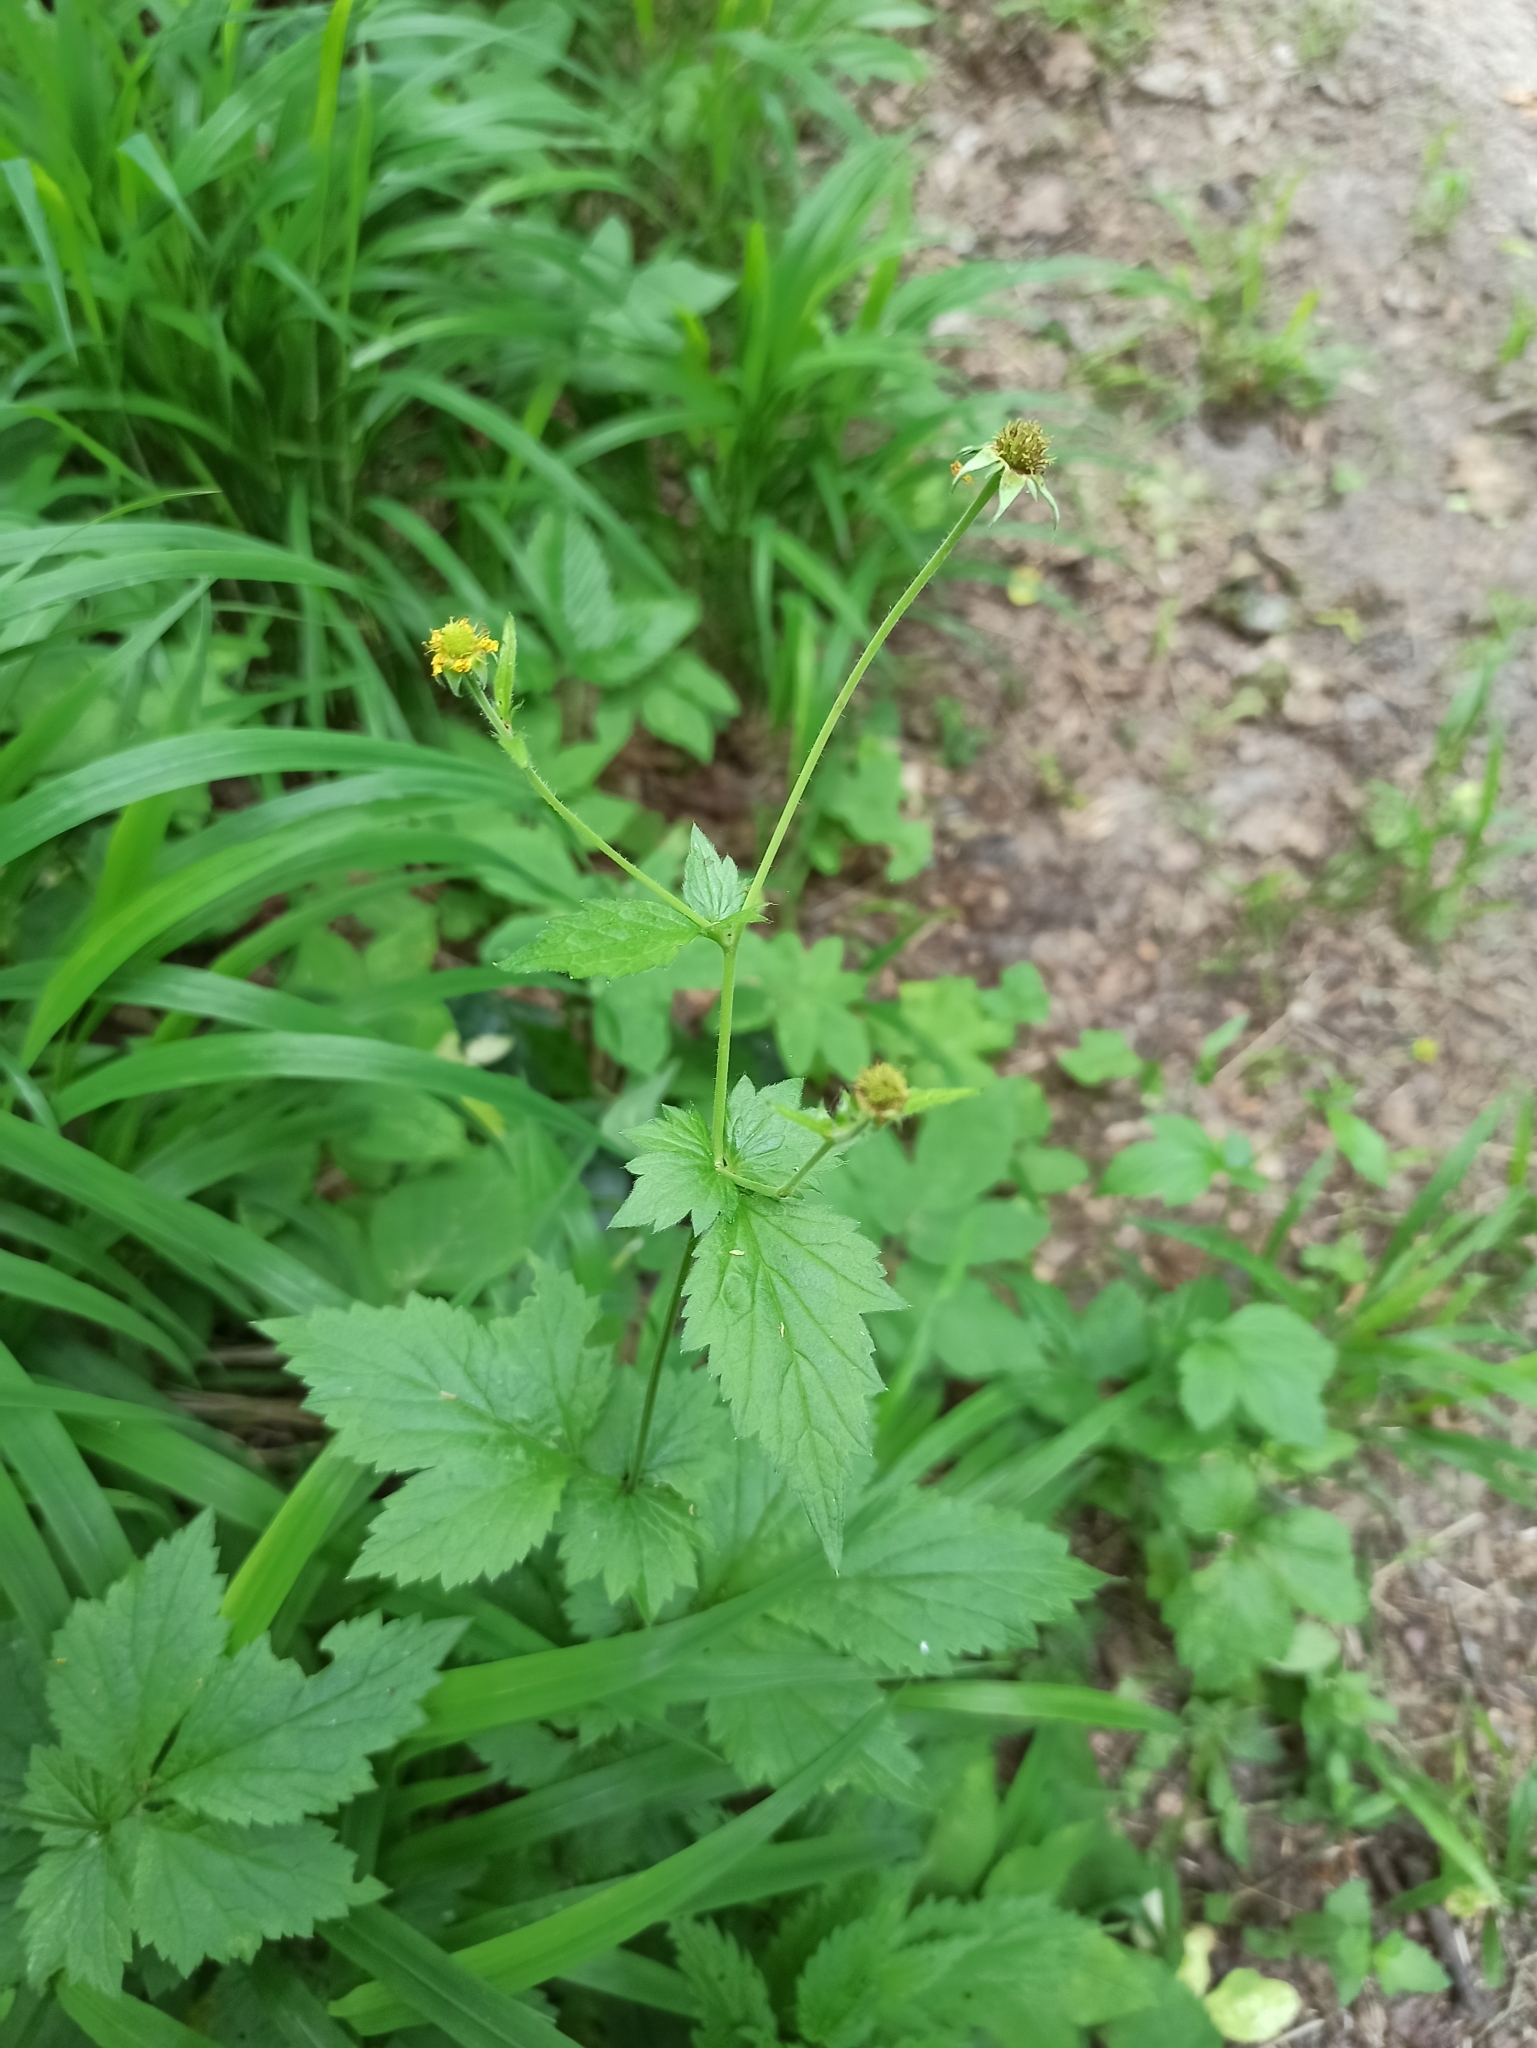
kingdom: Plantae
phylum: Tracheophyta
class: Magnoliopsida
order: Rosales
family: Rosaceae
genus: Geum
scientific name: Geum urbanum
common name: Wood avens
